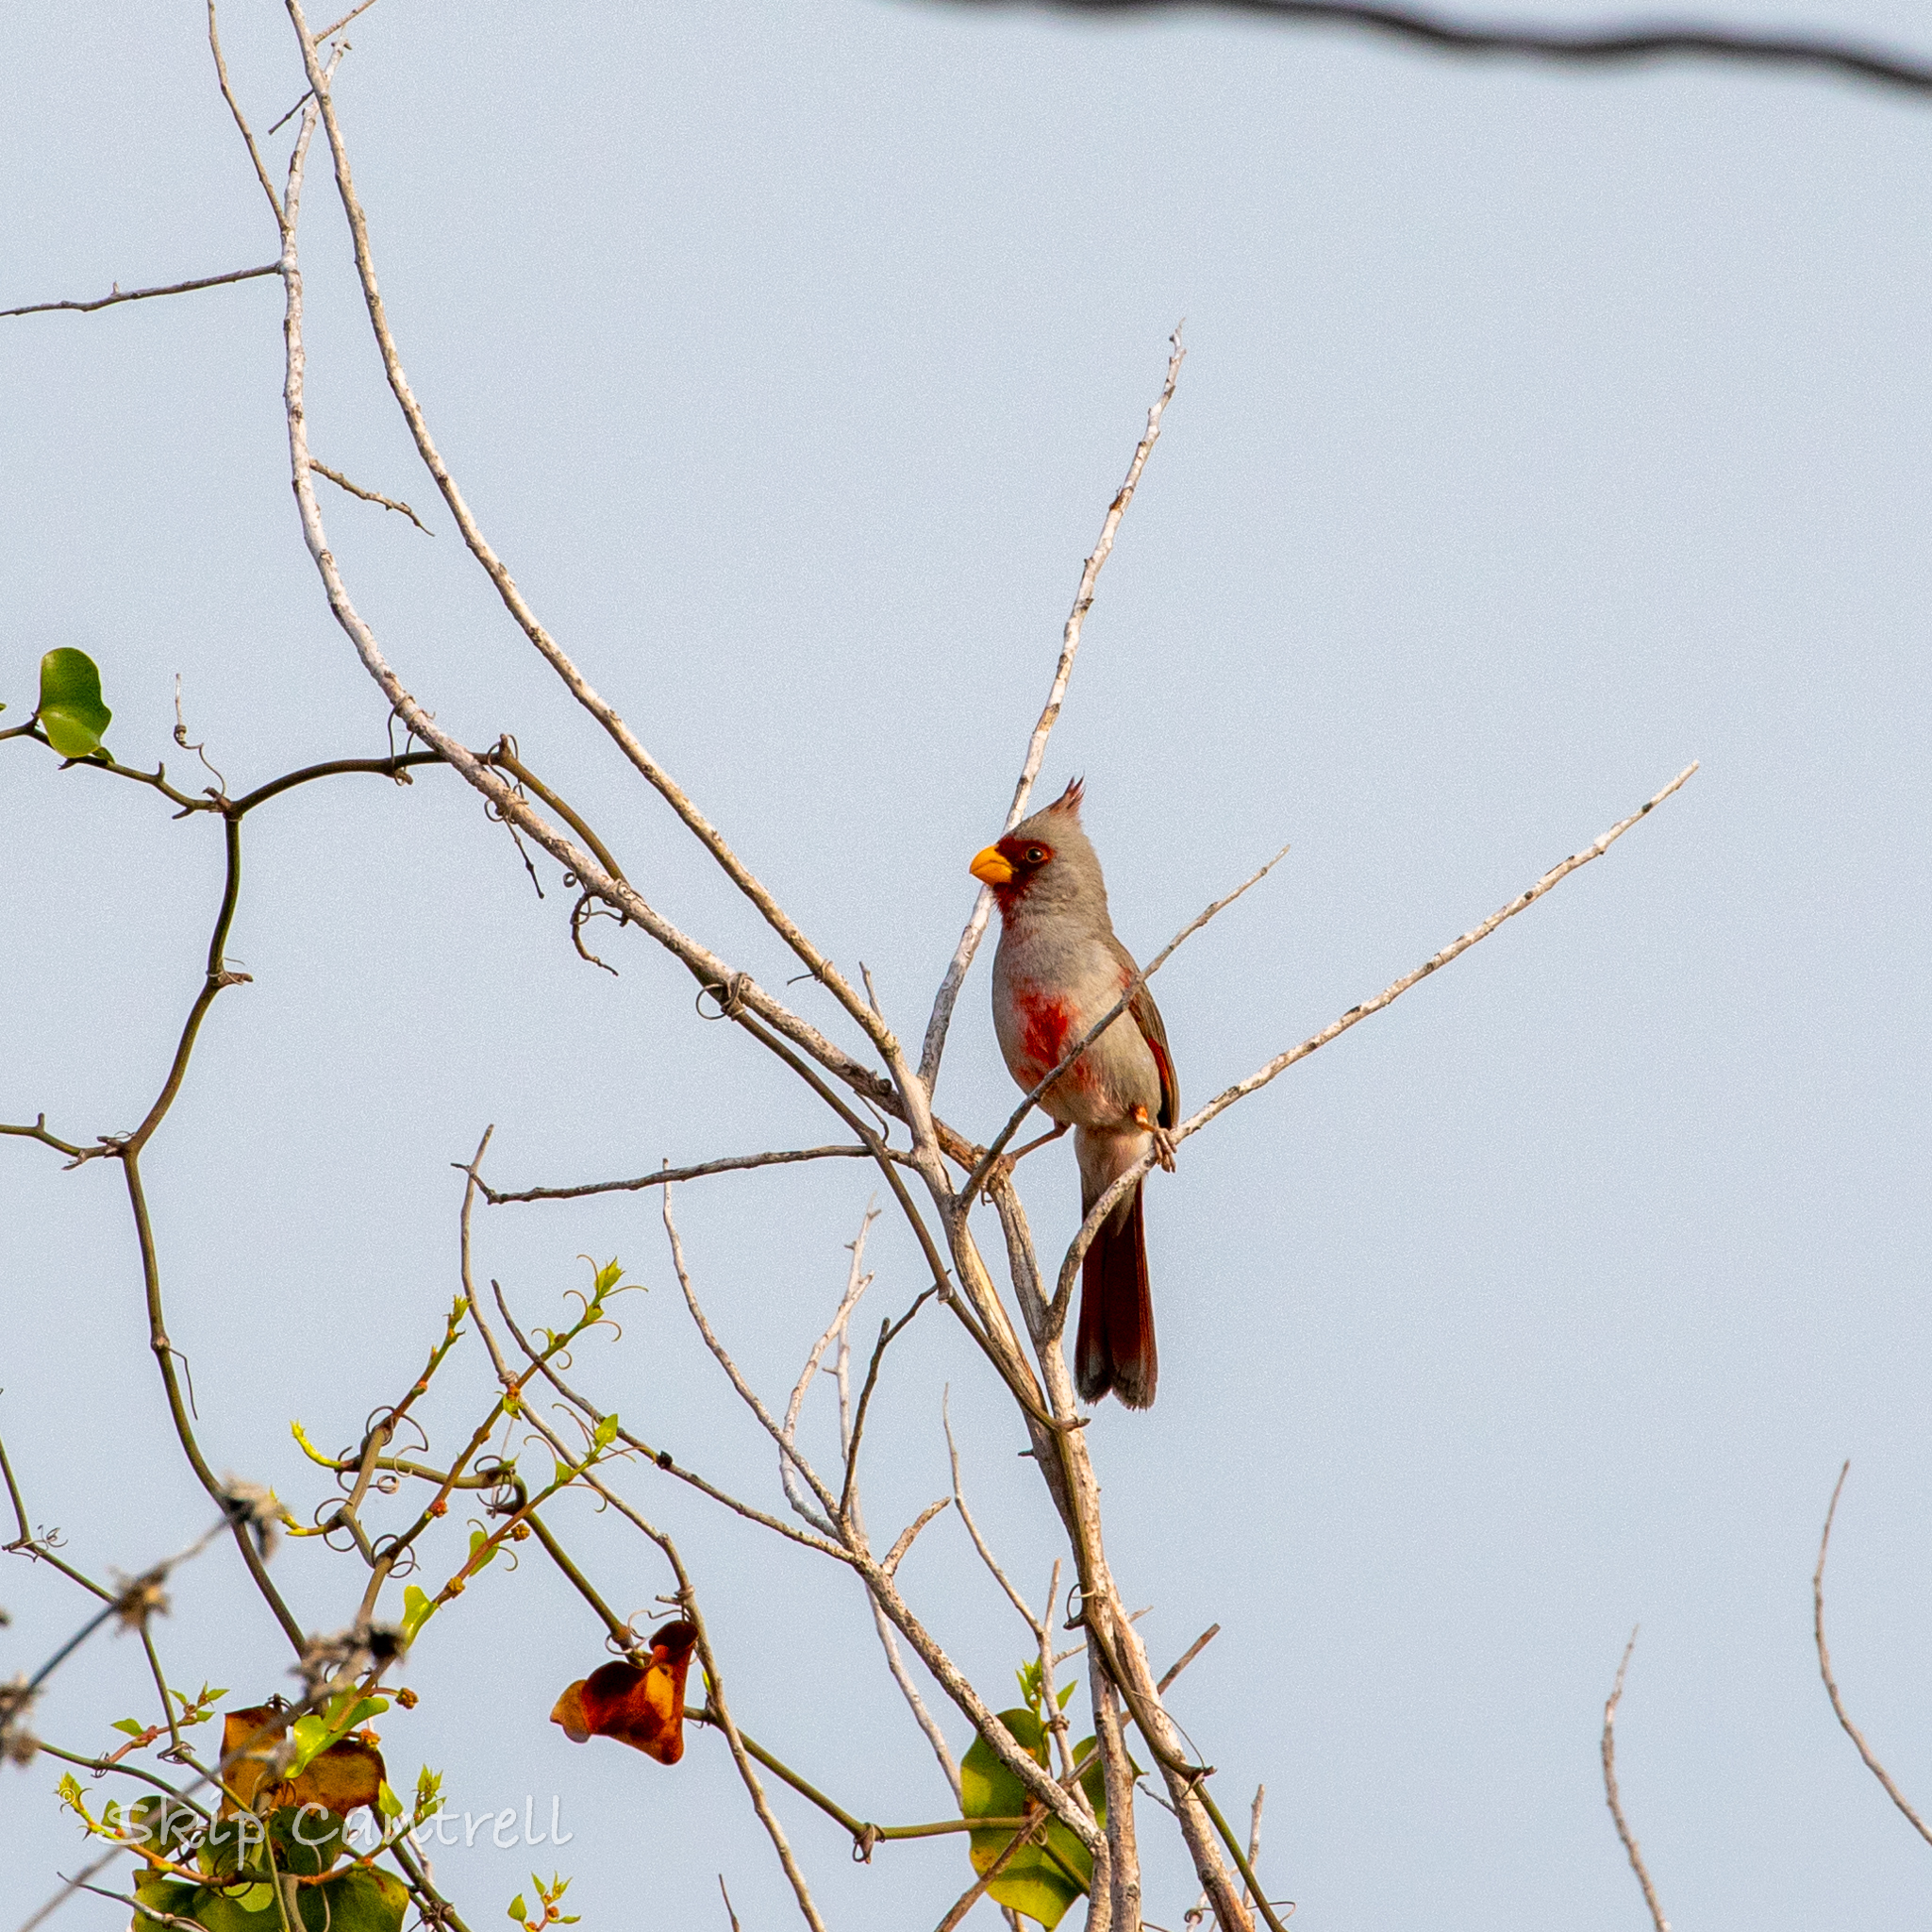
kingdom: Animalia
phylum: Chordata
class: Aves
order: Passeriformes
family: Cardinalidae
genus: Cardinalis
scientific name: Cardinalis sinuatus
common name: Pyrrhuloxia
